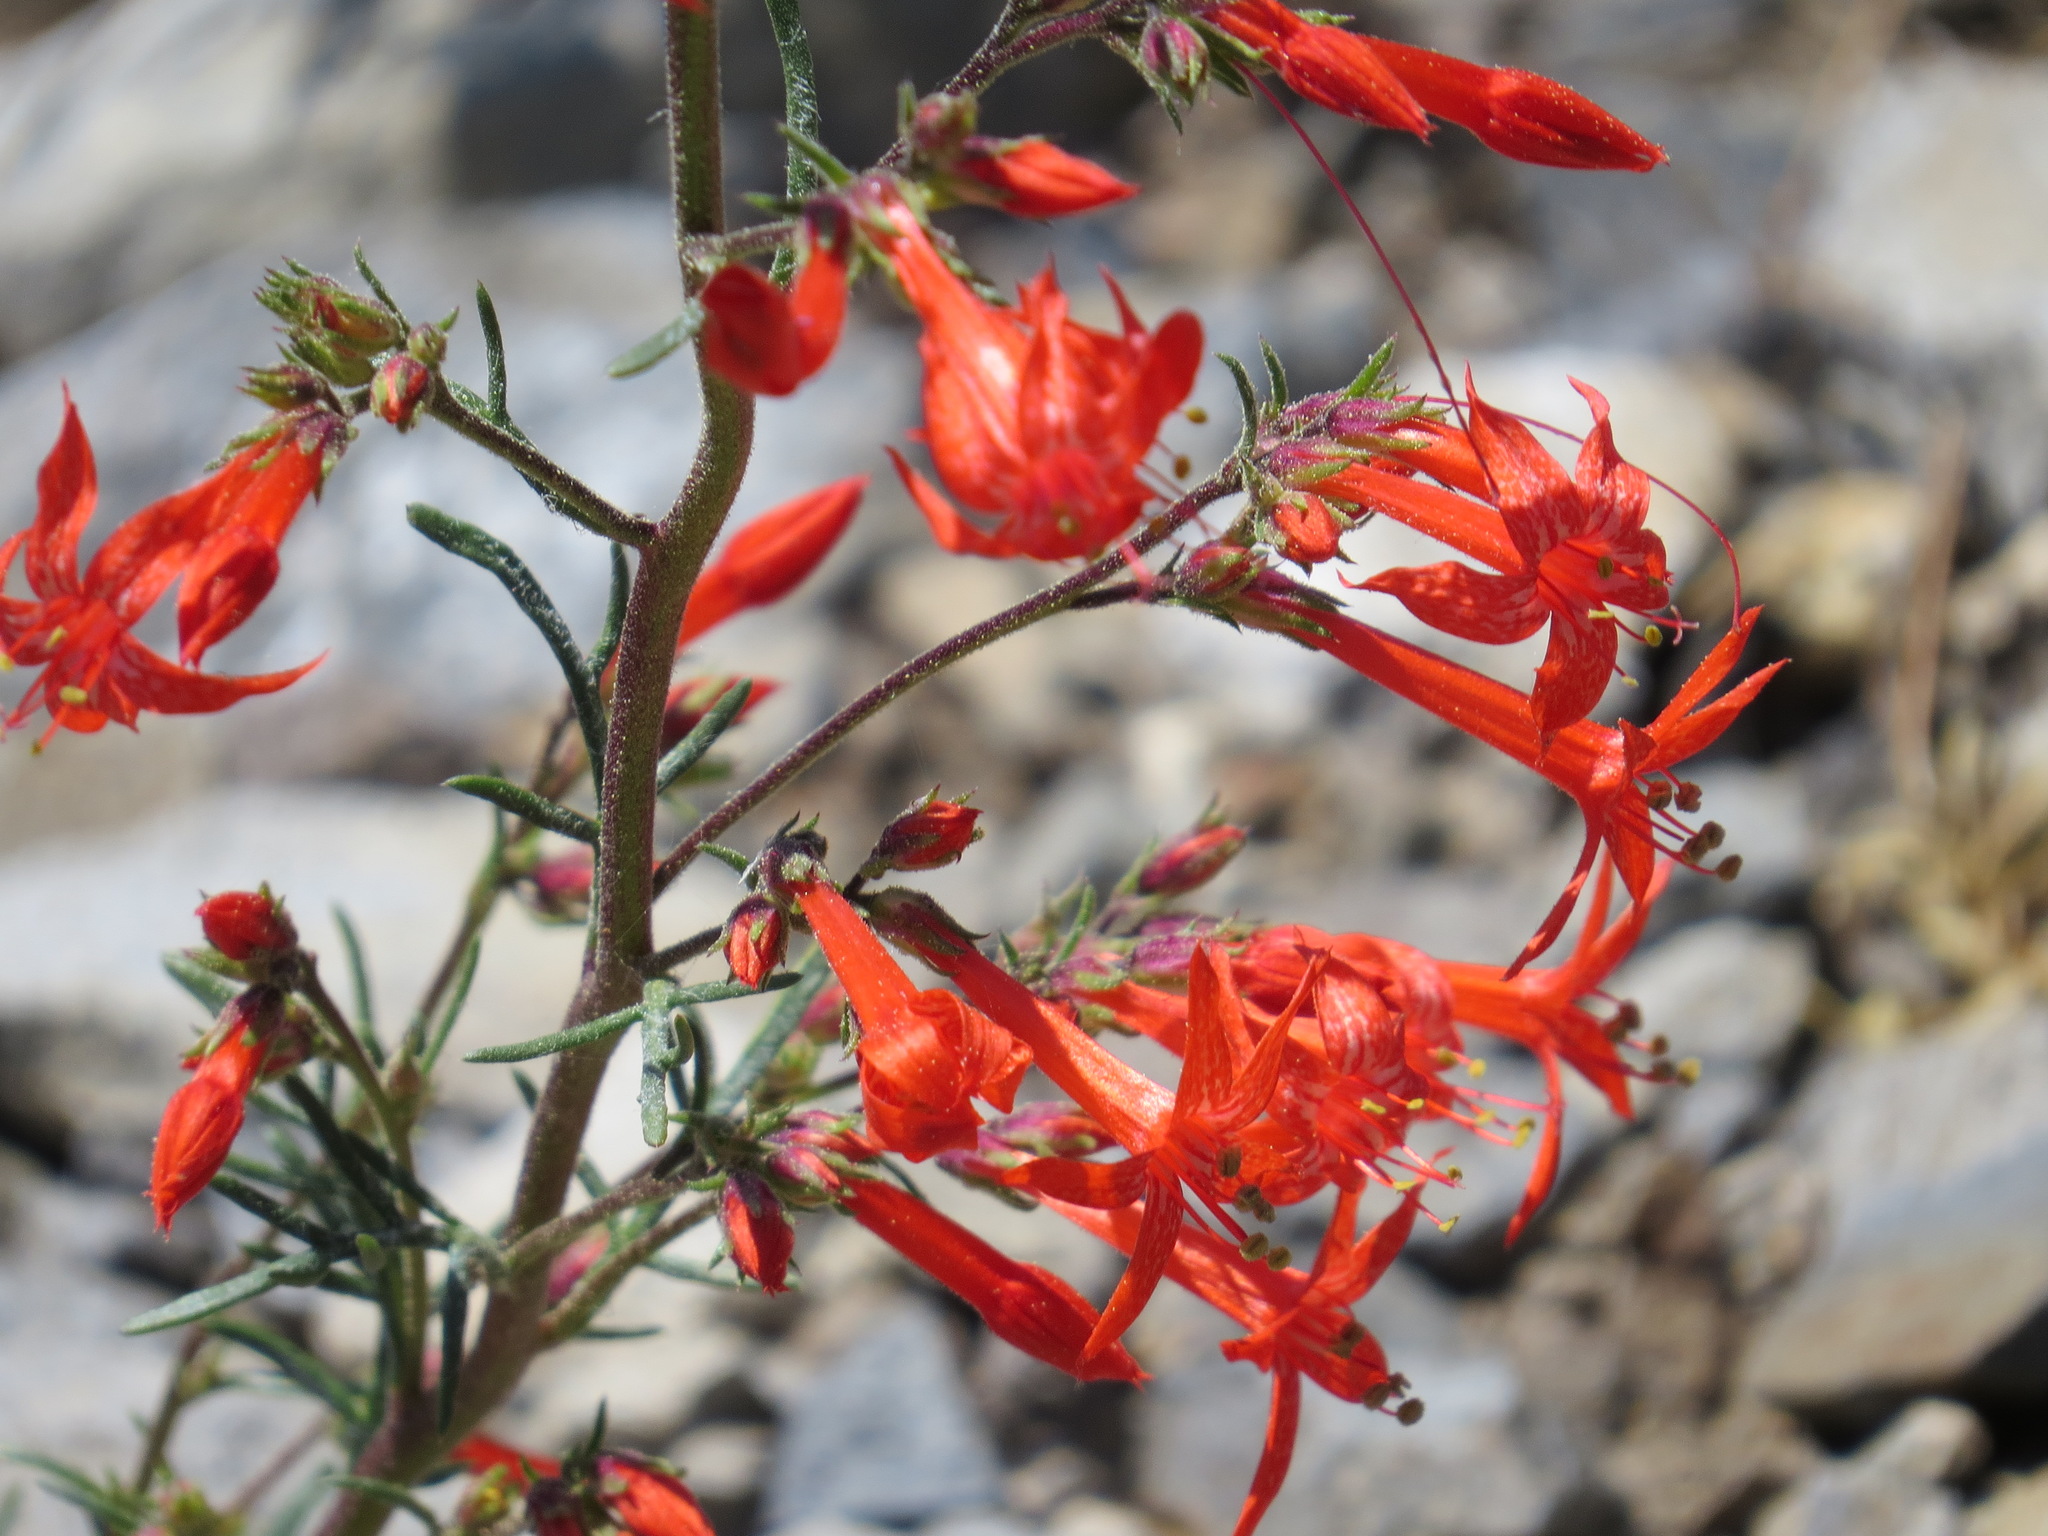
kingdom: Plantae
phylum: Tracheophyta
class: Magnoliopsida
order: Ericales
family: Polemoniaceae
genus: Ipomopsis
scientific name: Ipomopsis aggregata
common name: Scarlet gilia
